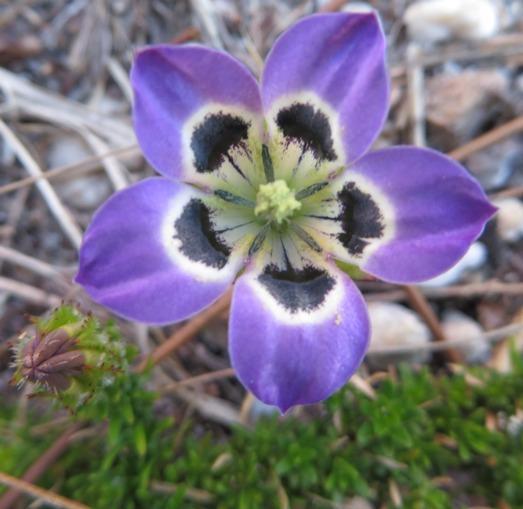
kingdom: Plantae
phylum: Tracheophyta
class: Magnoliopsida
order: Asterales
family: Campanulaceae
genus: Roella
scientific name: Roella incurva
